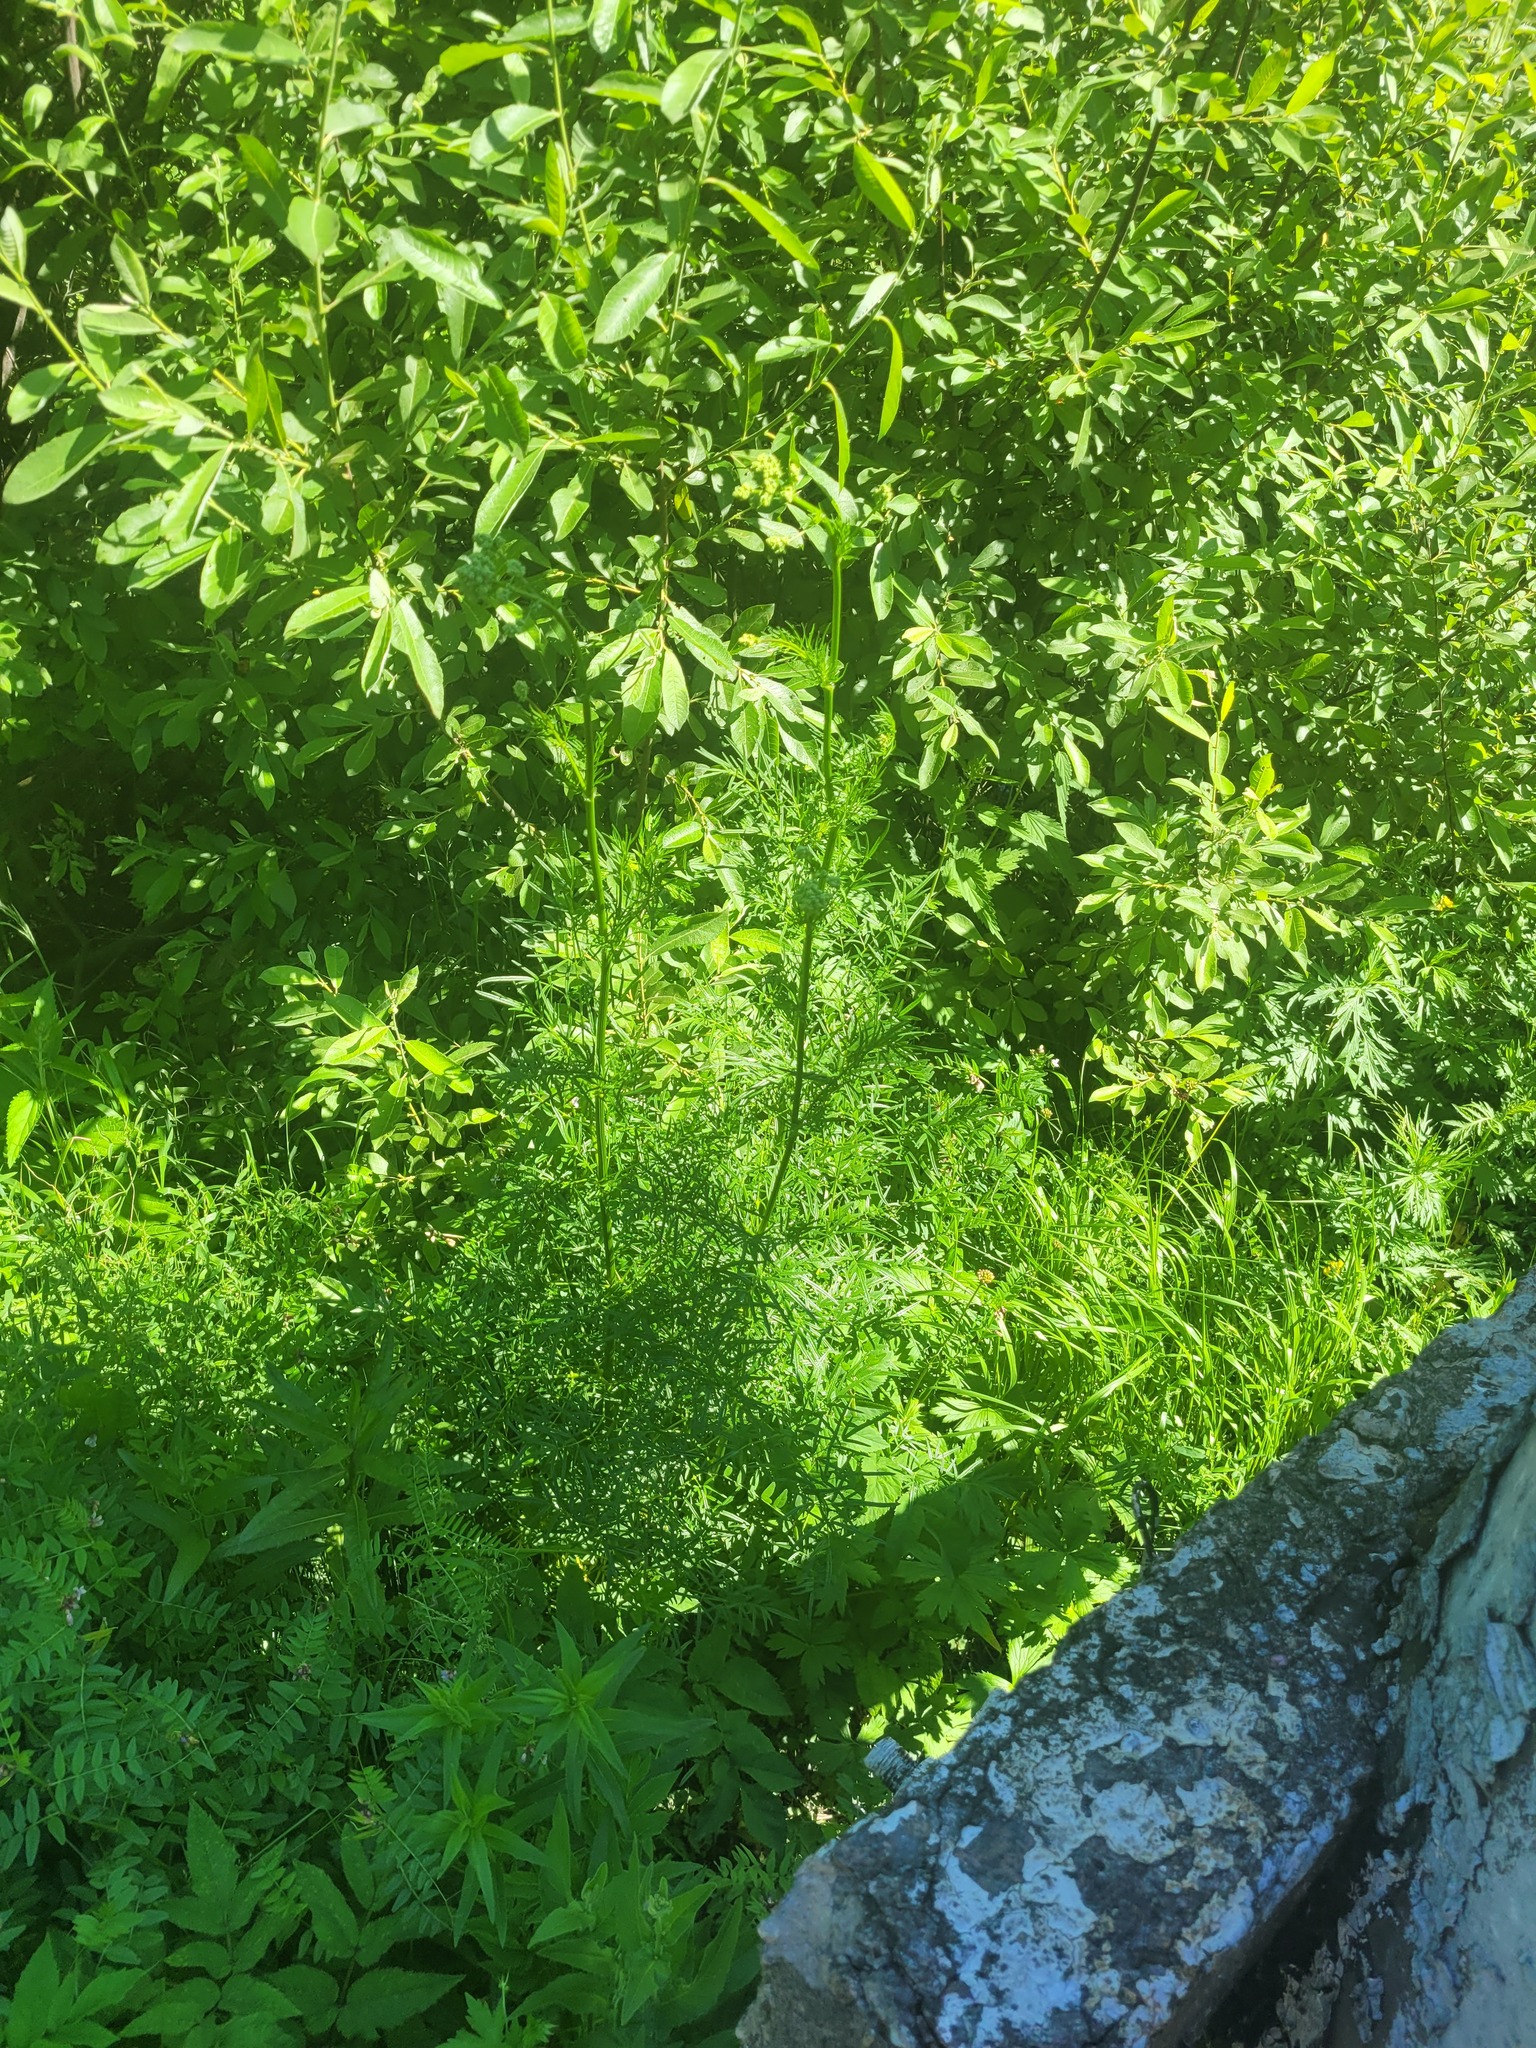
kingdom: Plantae
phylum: Tracheophyta
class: Magnoliopsida
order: Ranunculales
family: Ranunculaceae
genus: Thalictrum
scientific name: Thalictrum lucidum
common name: Shining meadow-rue
